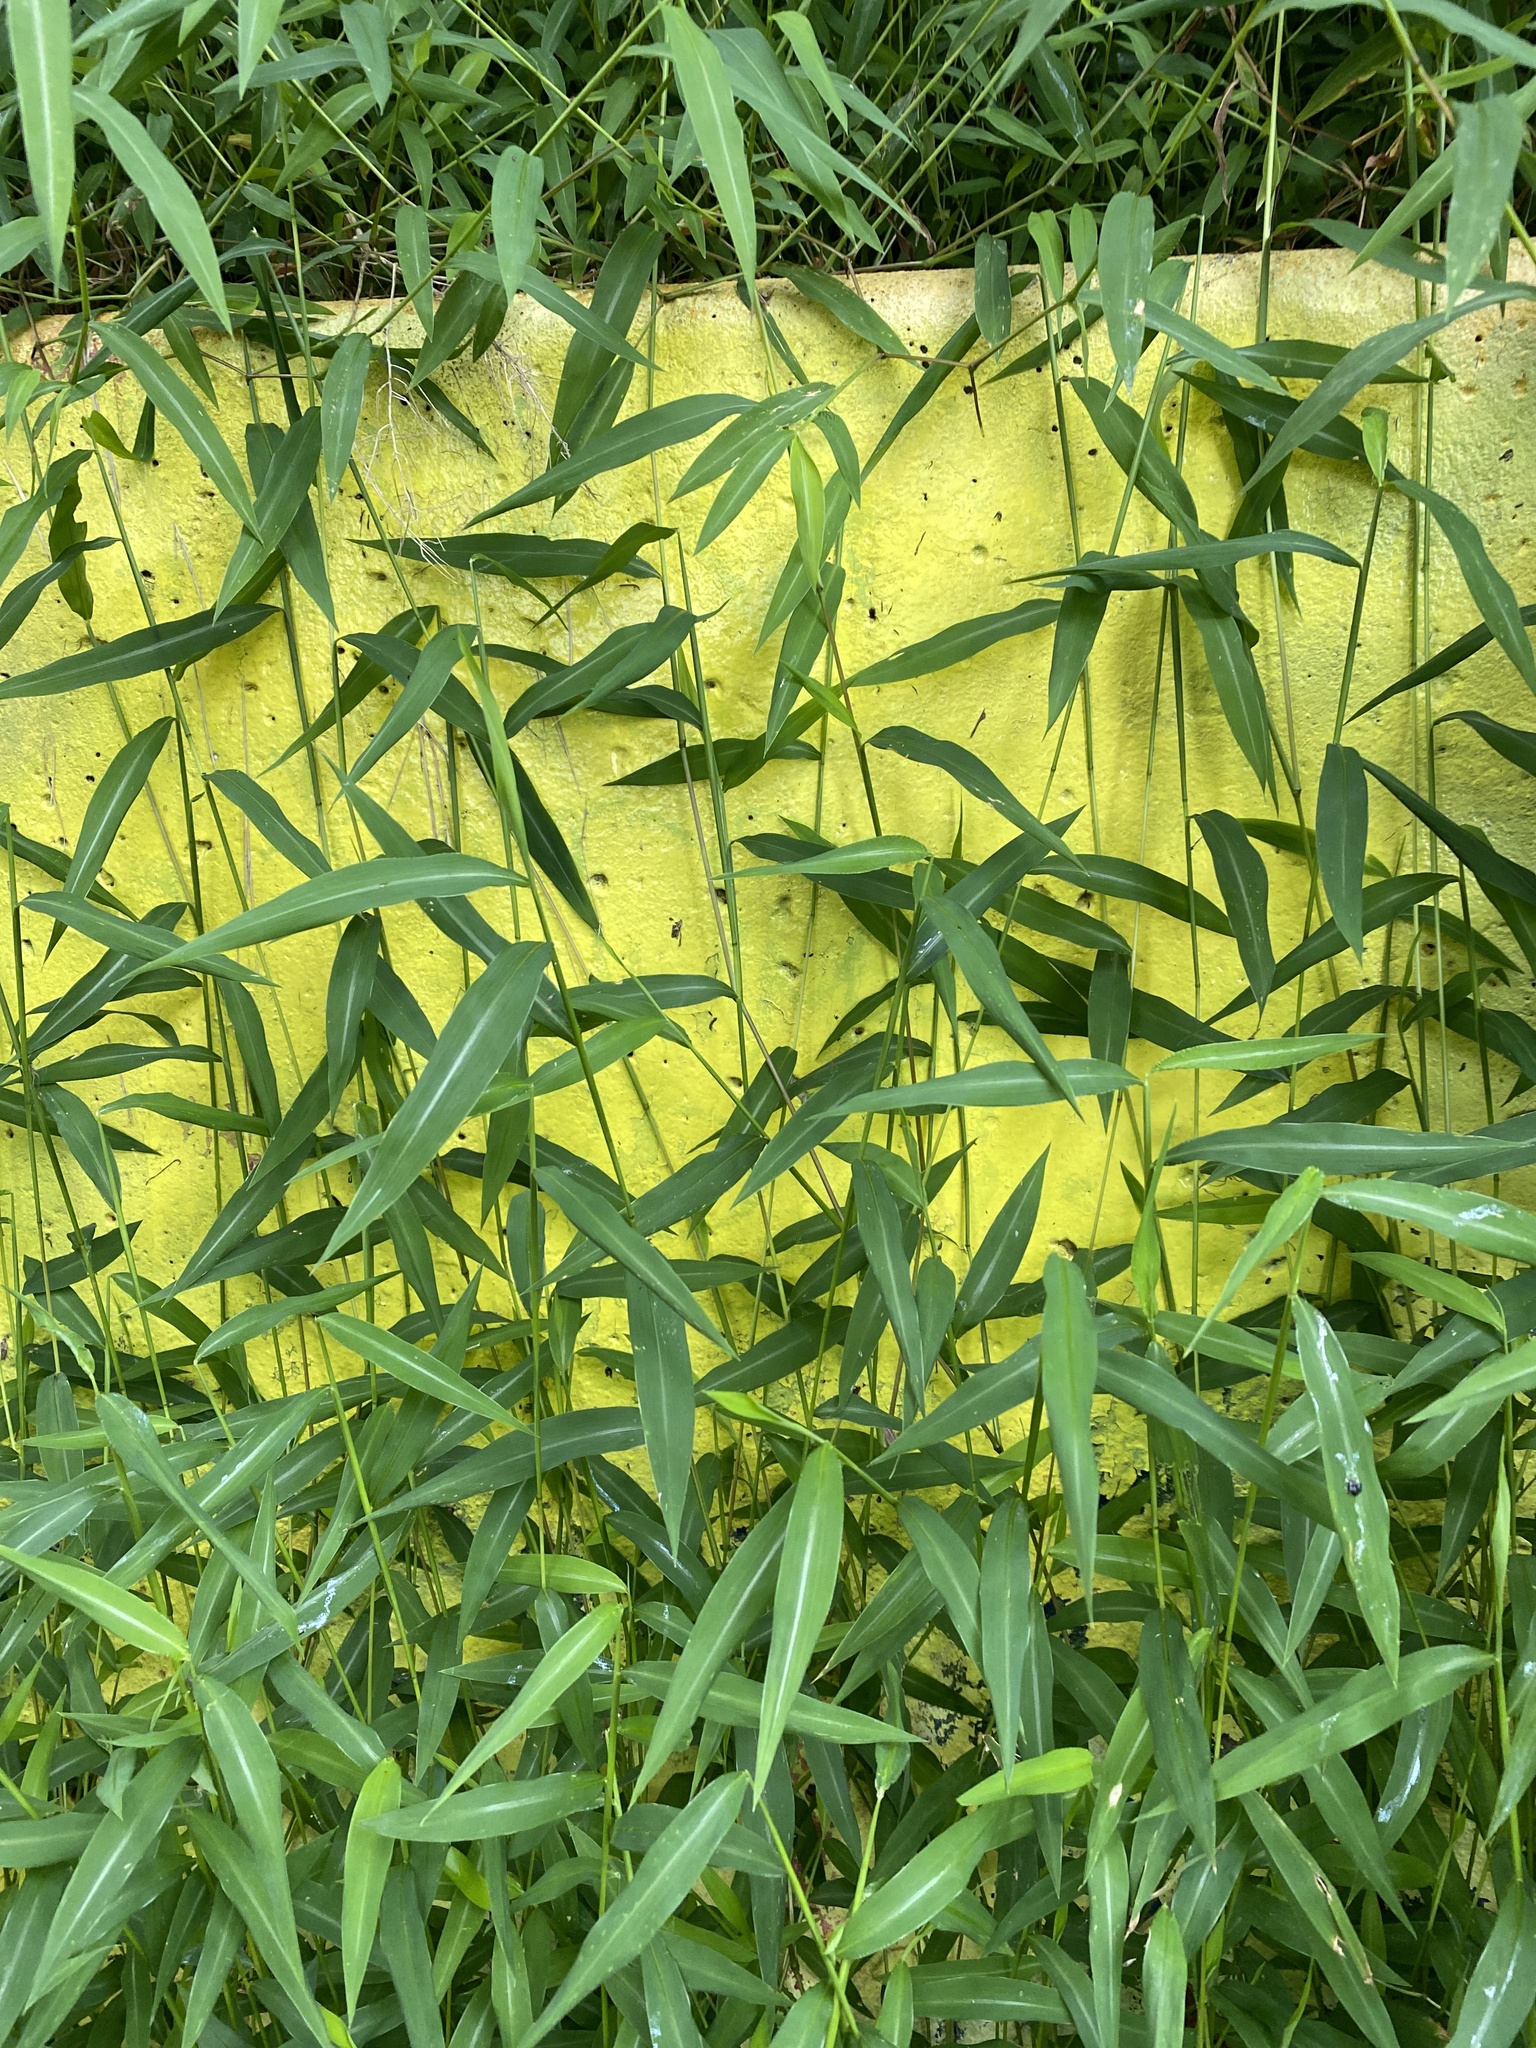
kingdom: Plantae
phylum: Tracheophyta
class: Liliopsida
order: Poales
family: Poaceae
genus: Microstegium
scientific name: Microstegium vimineum
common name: Japanese stiltgrass
